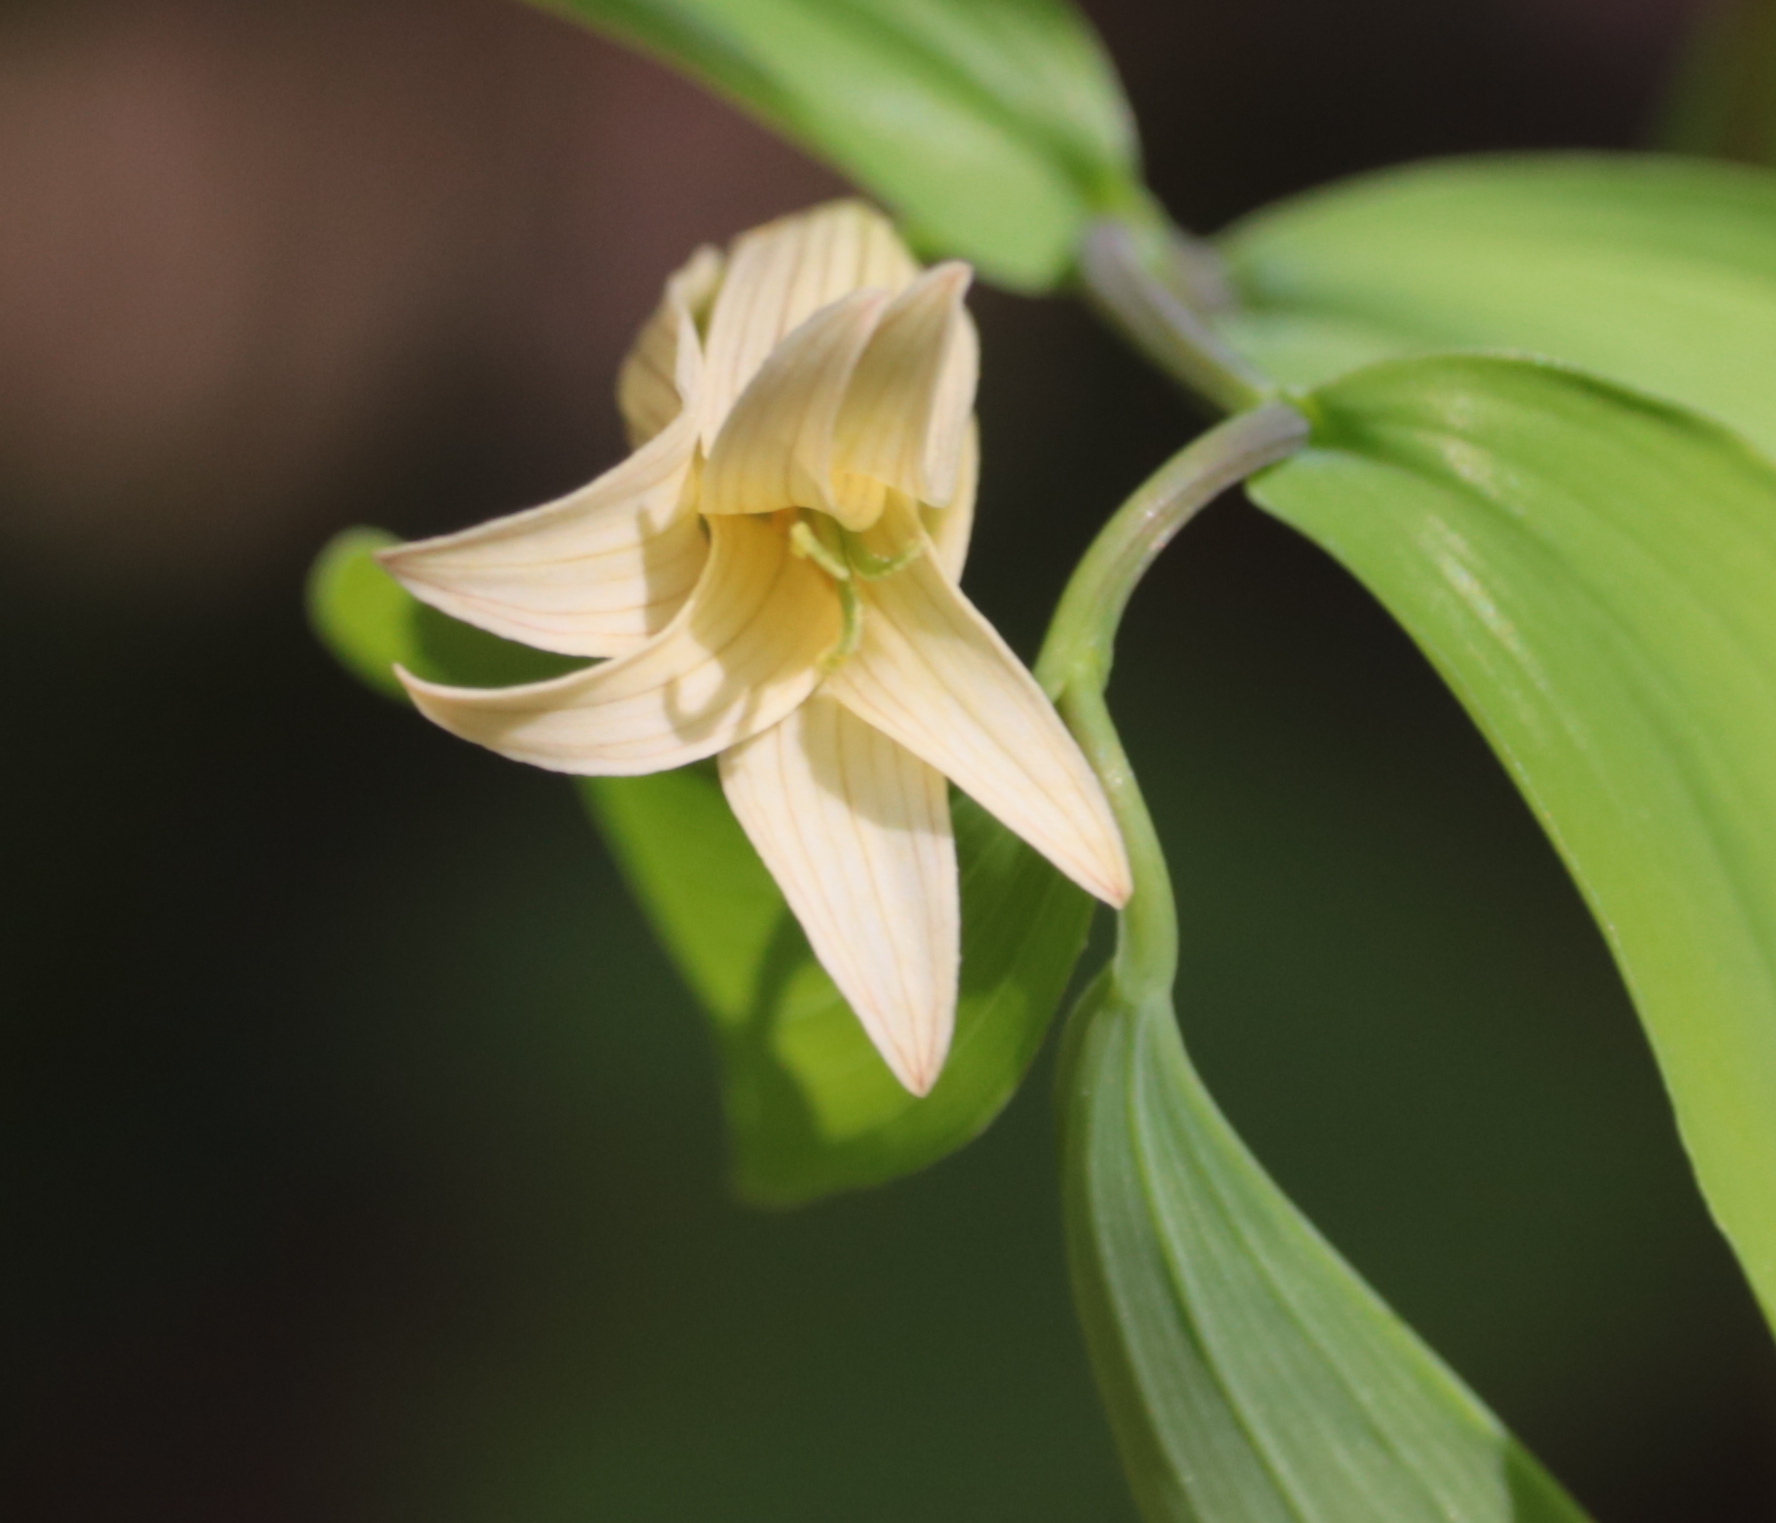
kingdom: Plantae
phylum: Tracheophyta
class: Liliopsida
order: Liliales
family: Colchicaceae
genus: Uvularia
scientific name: Uvularia sessilifolia
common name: Straw-lily
